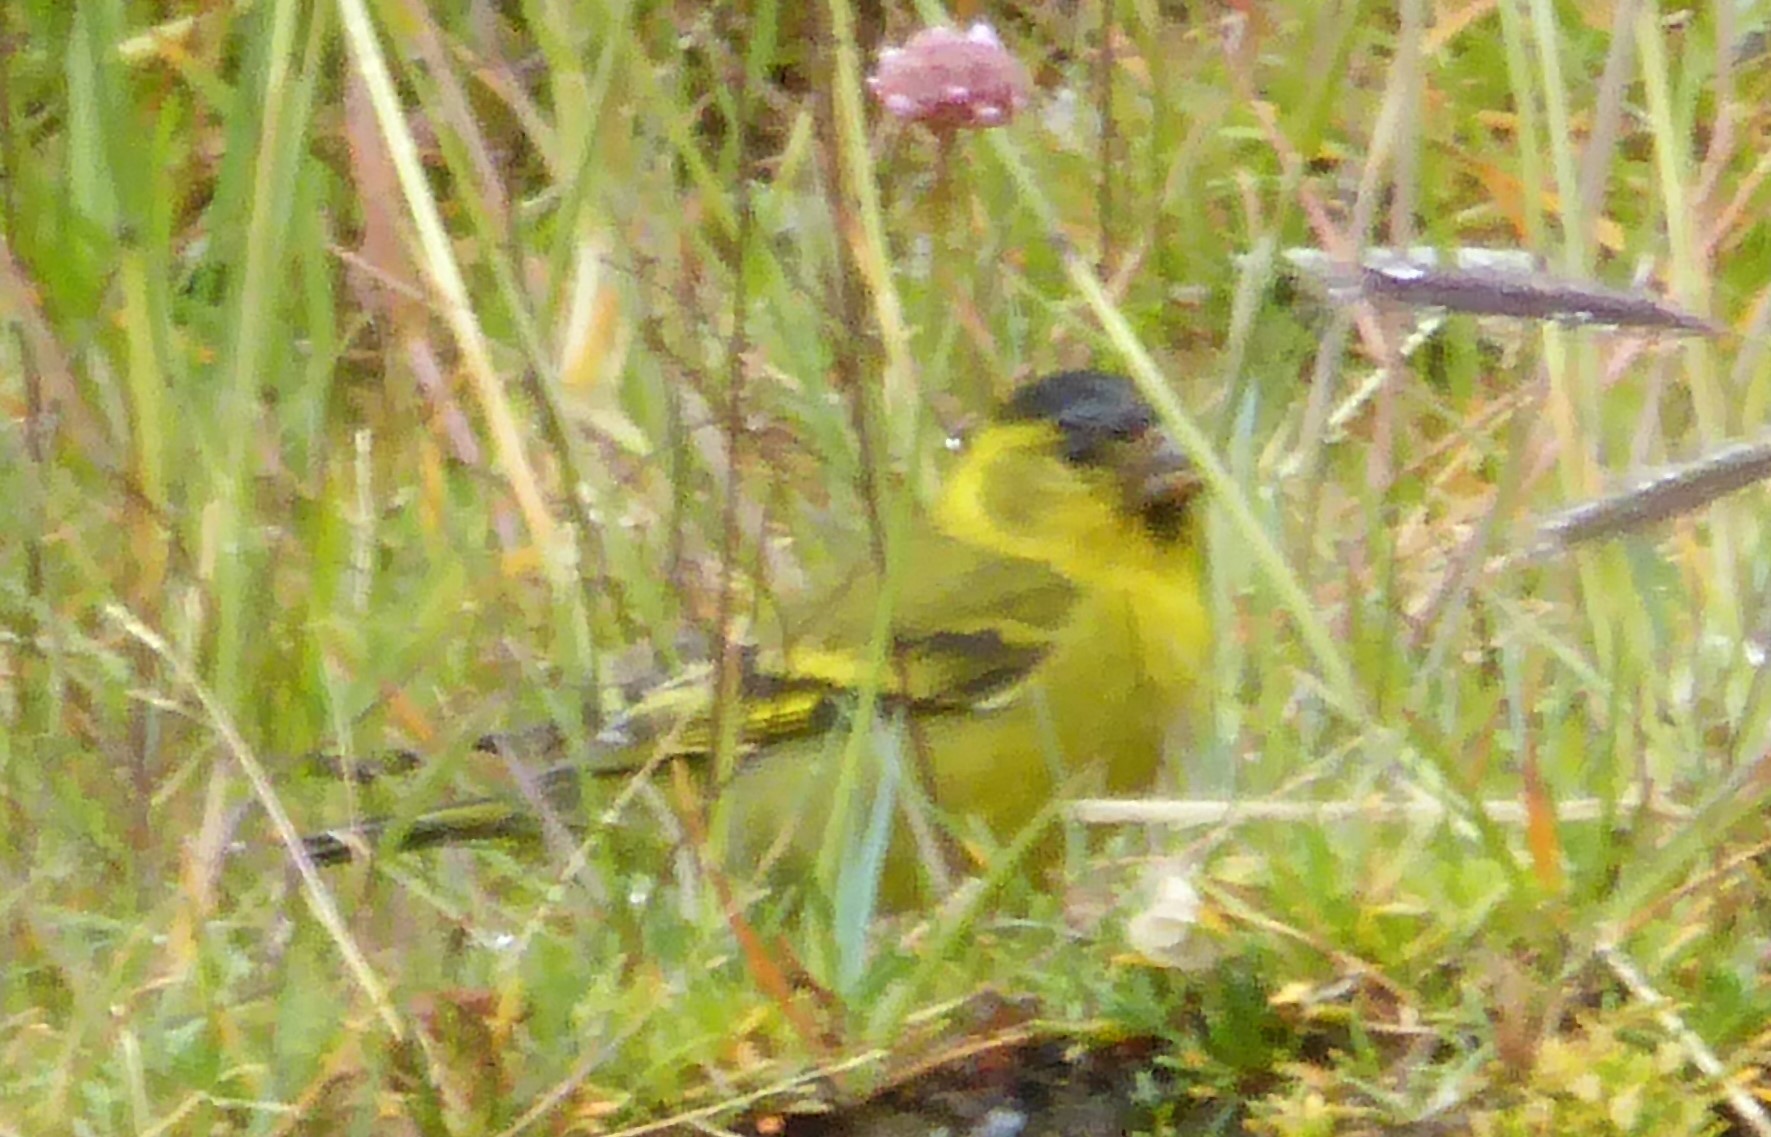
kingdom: Animalia
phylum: Chordata
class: Aves
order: Passeriformes
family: Fringillidae
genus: Spinus
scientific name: Spinus barbatus
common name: Black-chinned siskin
